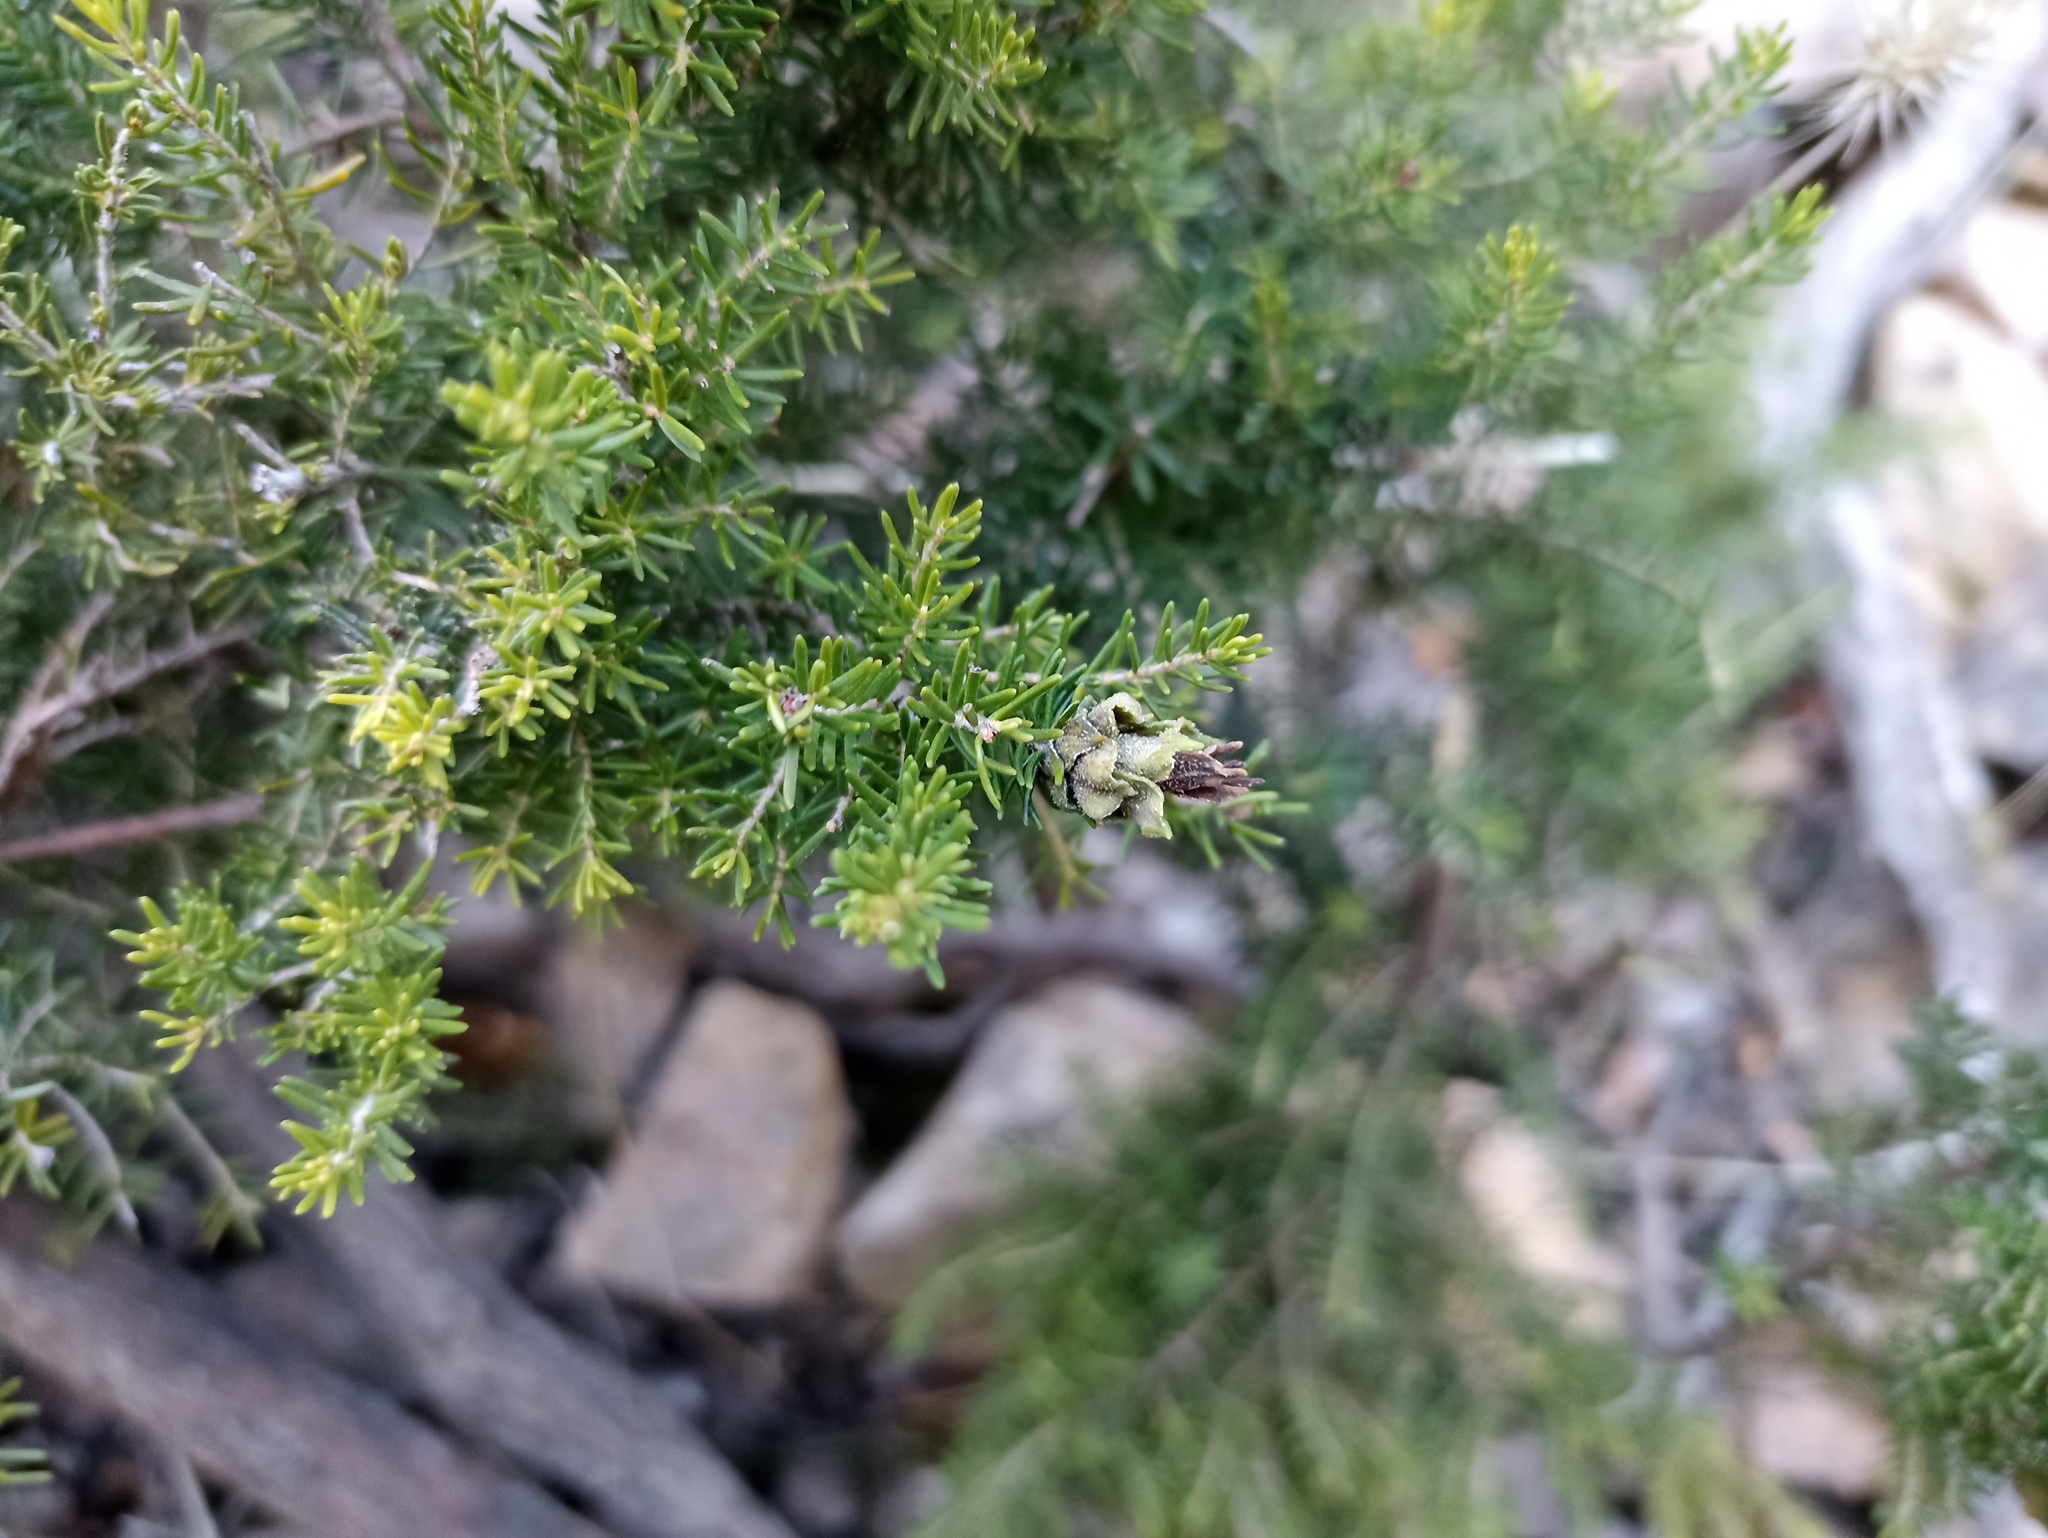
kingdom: Animalia
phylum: Arthropoda
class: Insecta
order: Diptera
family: Cecidomyiidae
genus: Wachtliella
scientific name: Wachtliella ericina
